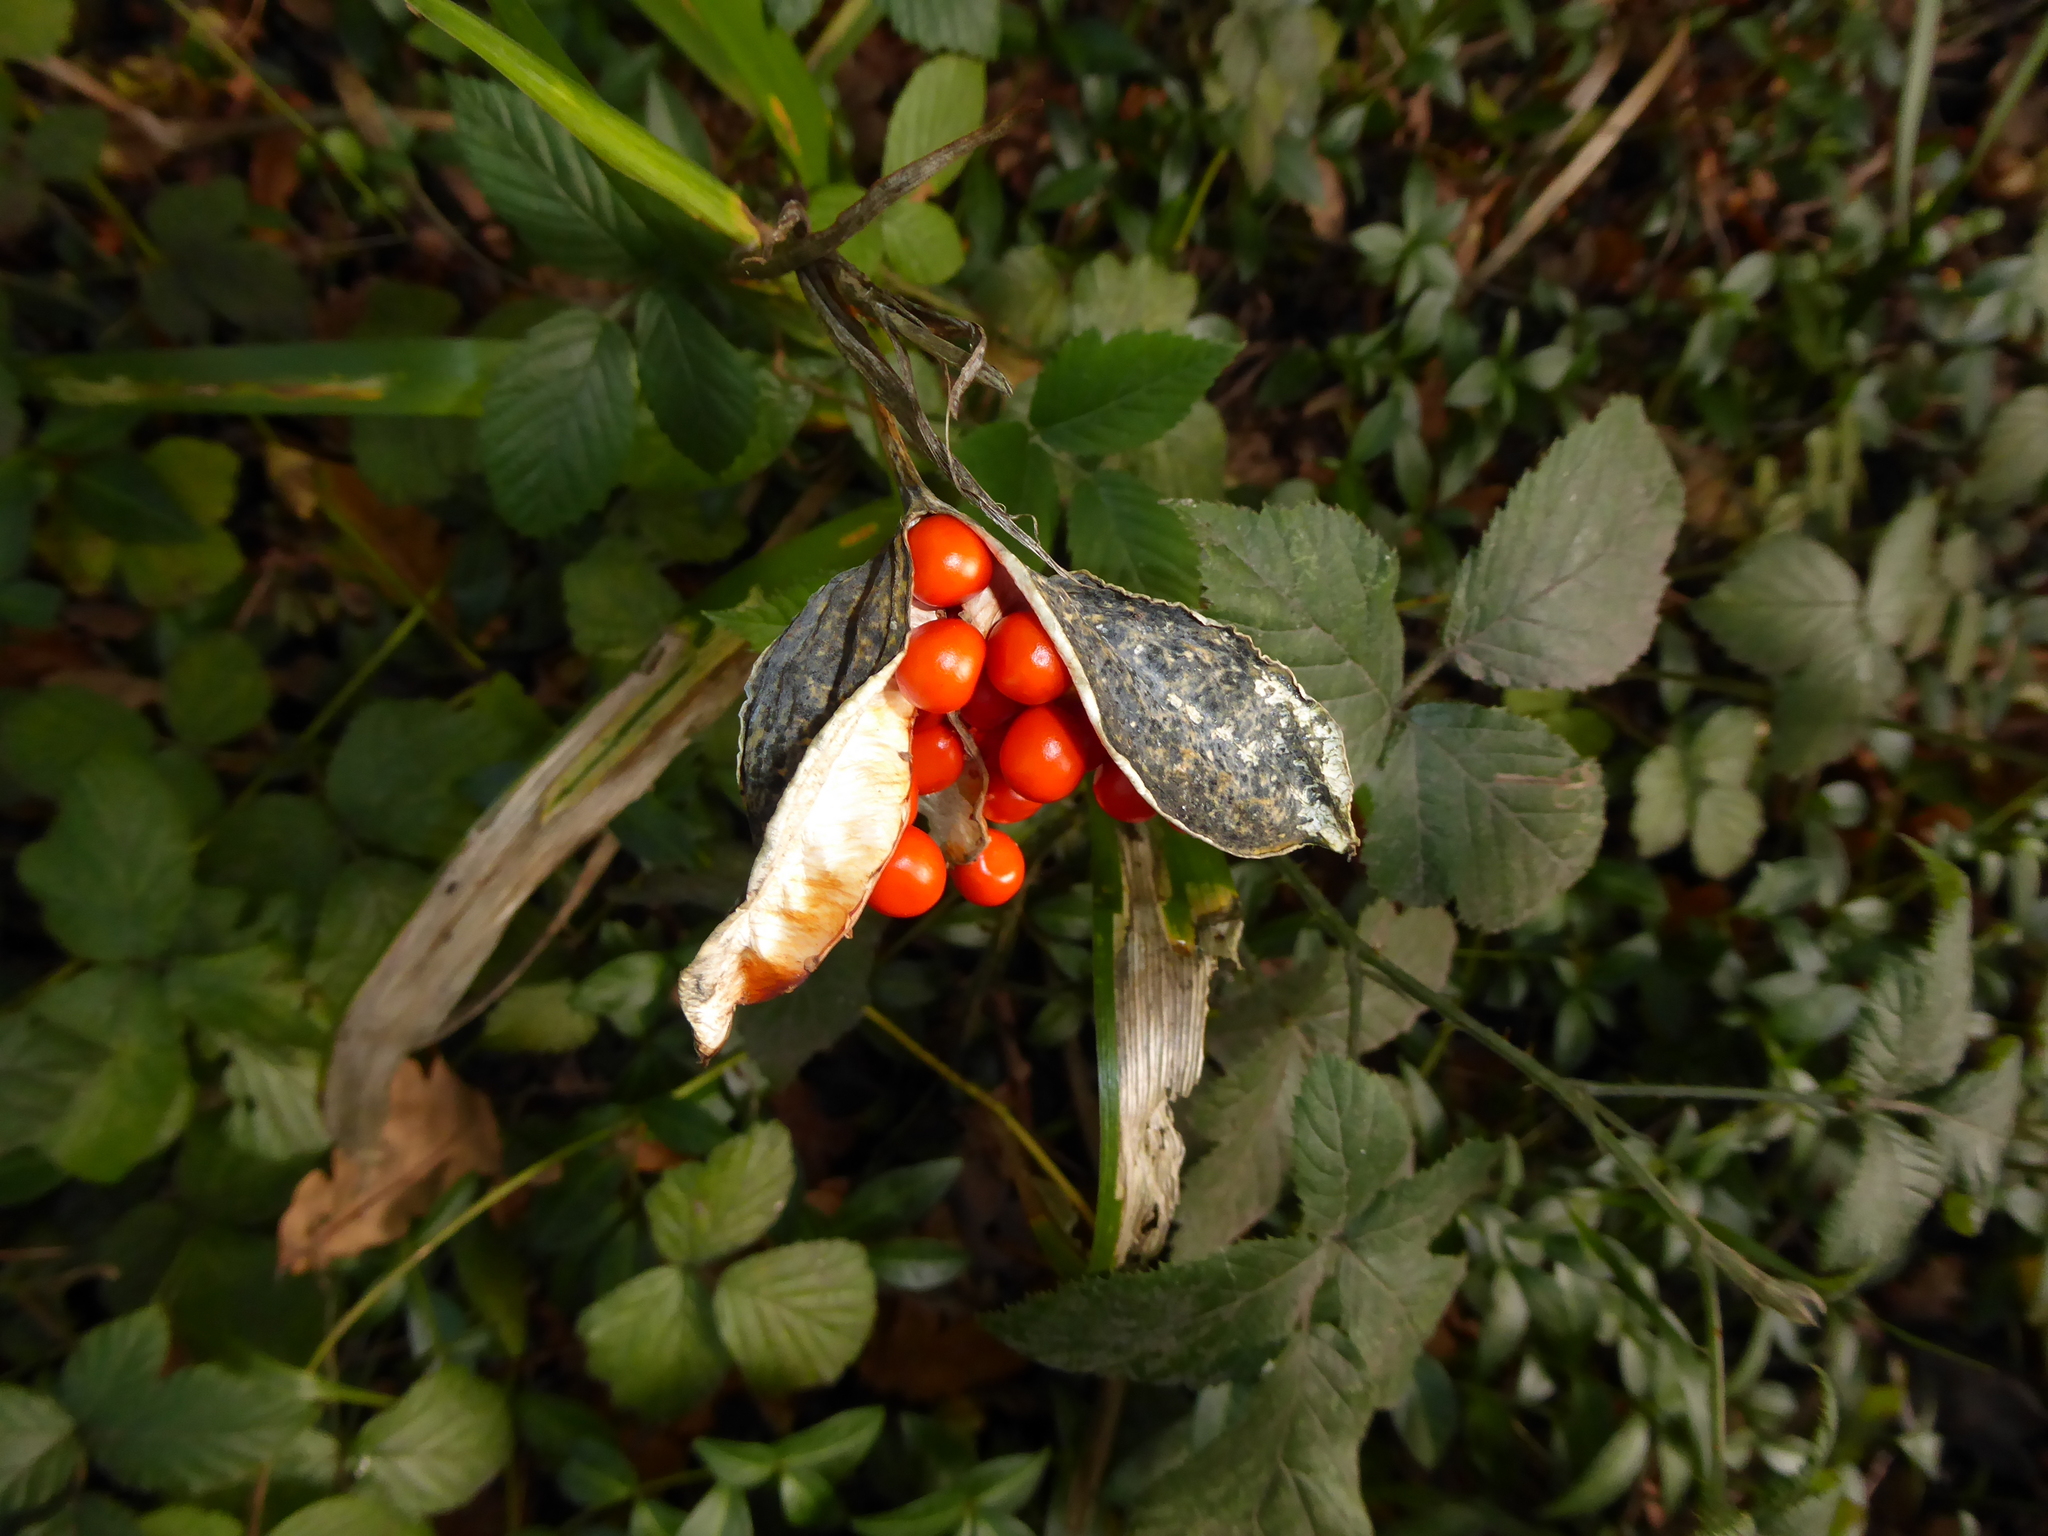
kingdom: Plantae
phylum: Tracheophyta
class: Liliopsida
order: Asparagales
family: Iridaceae
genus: Iris
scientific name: Iris foetidissima
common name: Stinking iris
